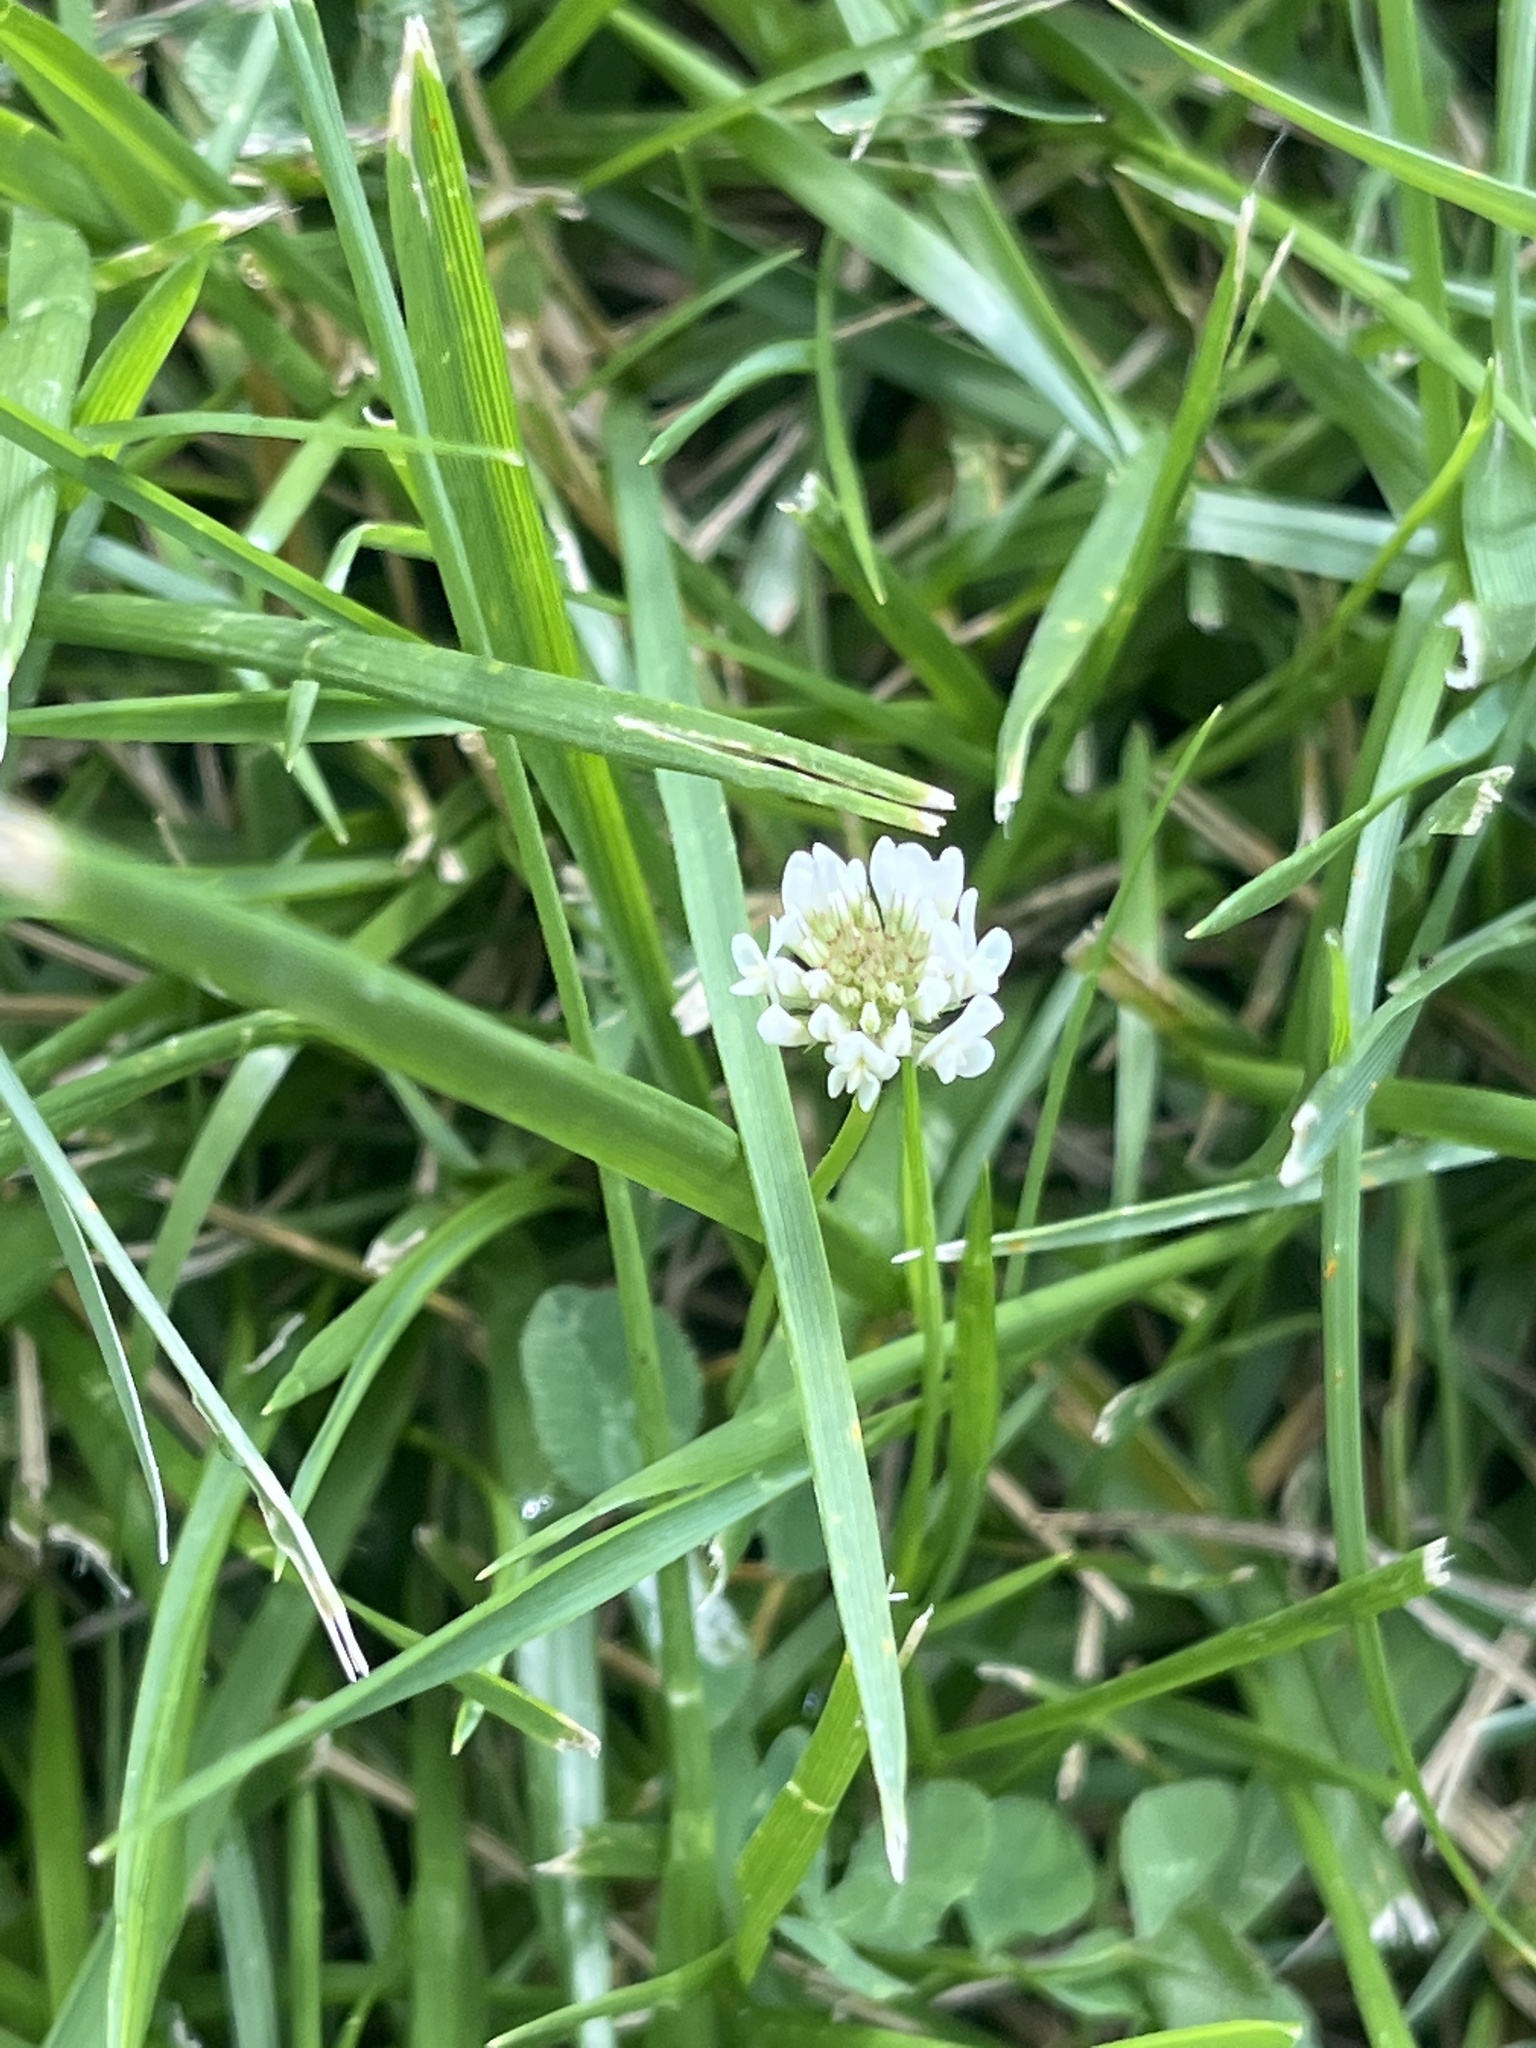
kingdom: Plantae
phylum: Tracheophyta
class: Magnoliopsida
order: Fabales
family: Fabaceae
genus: Trifolium
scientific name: Trifolium repens
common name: White clover
